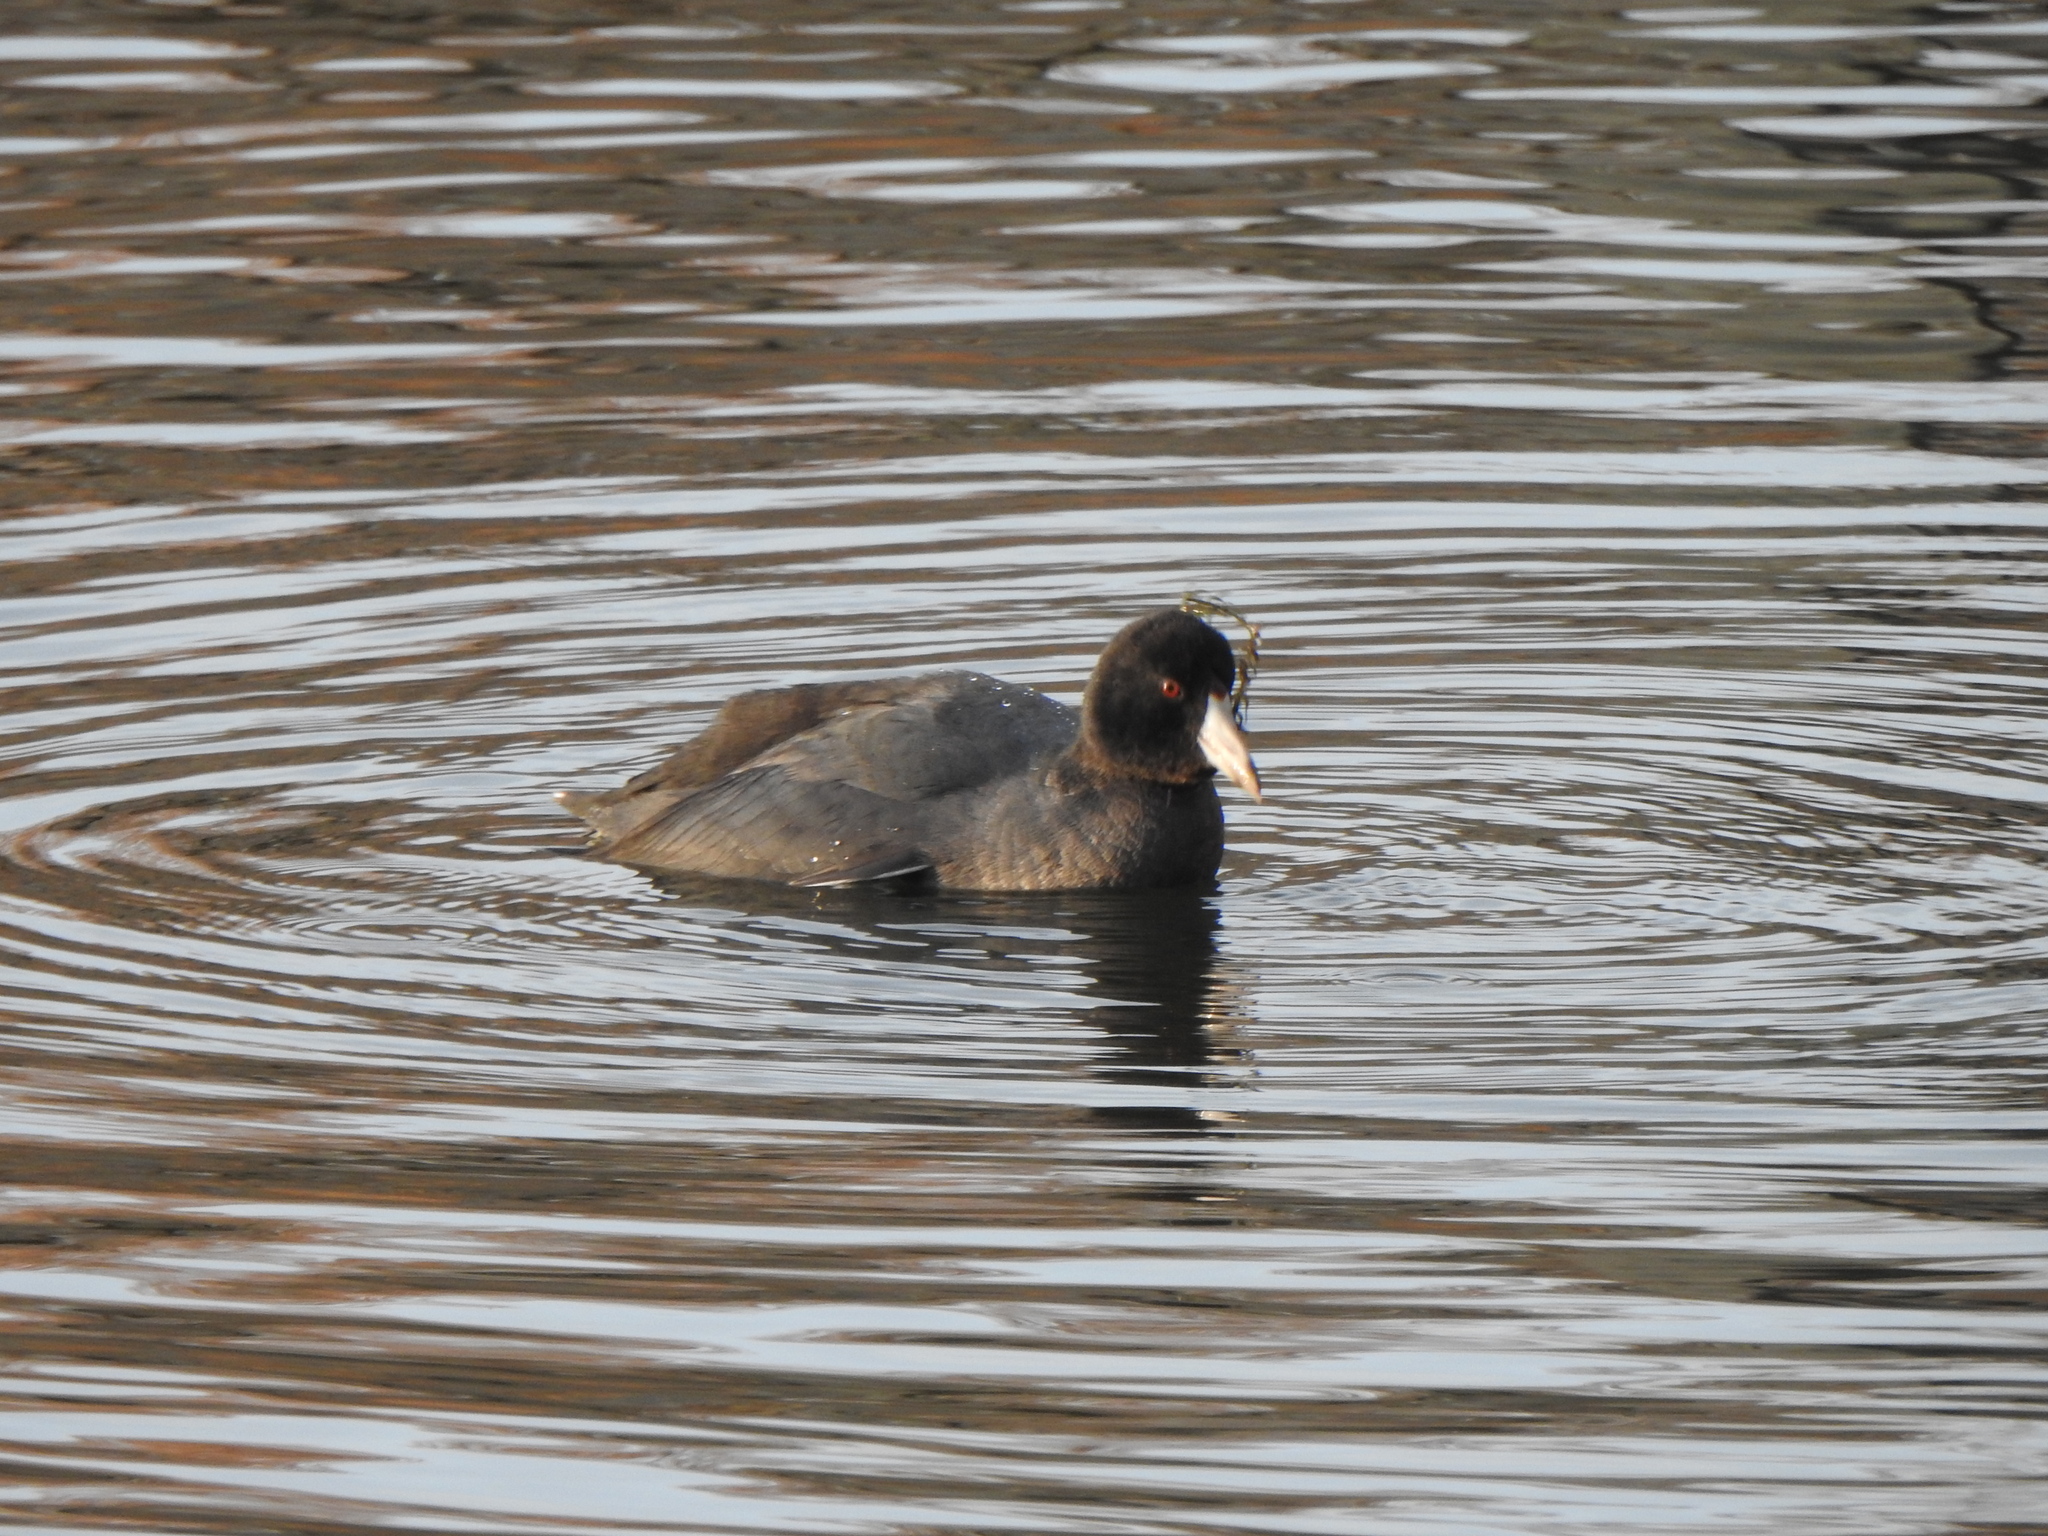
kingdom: Animalia
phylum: Chordata
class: Aves
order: Gruiformes
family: Rallidae
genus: Fulica
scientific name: Fulica americana
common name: American coot
